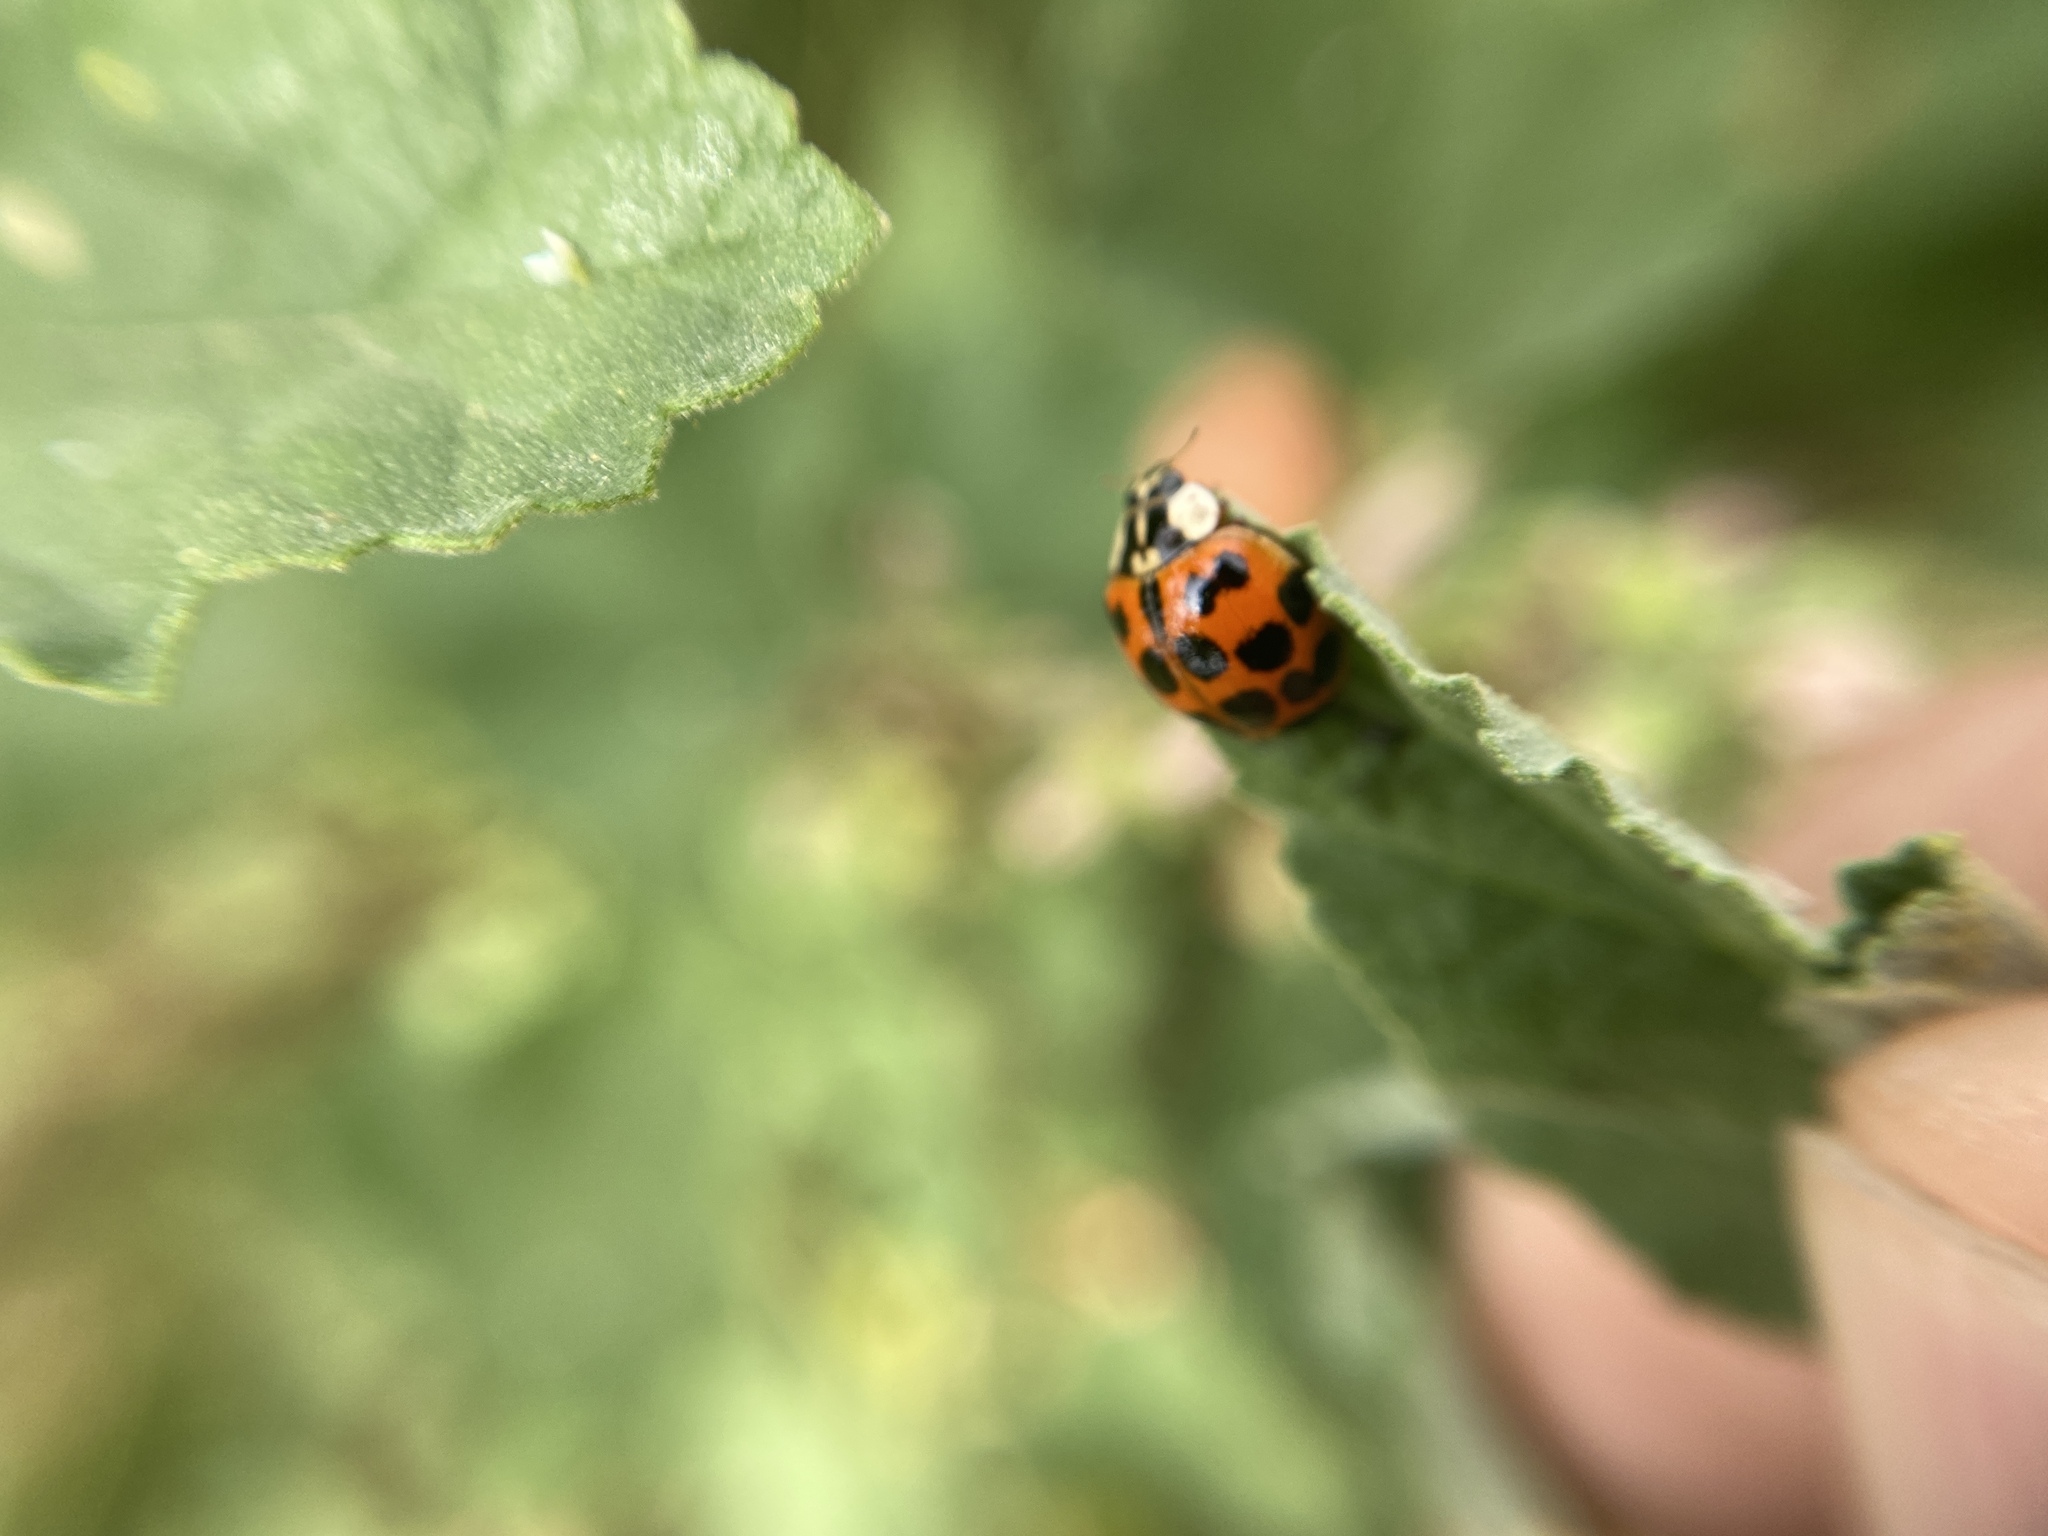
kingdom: Animalia
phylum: Arthropoda
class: Insecta
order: Coleoptera
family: Coccinellidae
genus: Harmonia
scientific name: Harmonia axyridis
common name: Harlequin ladybird
